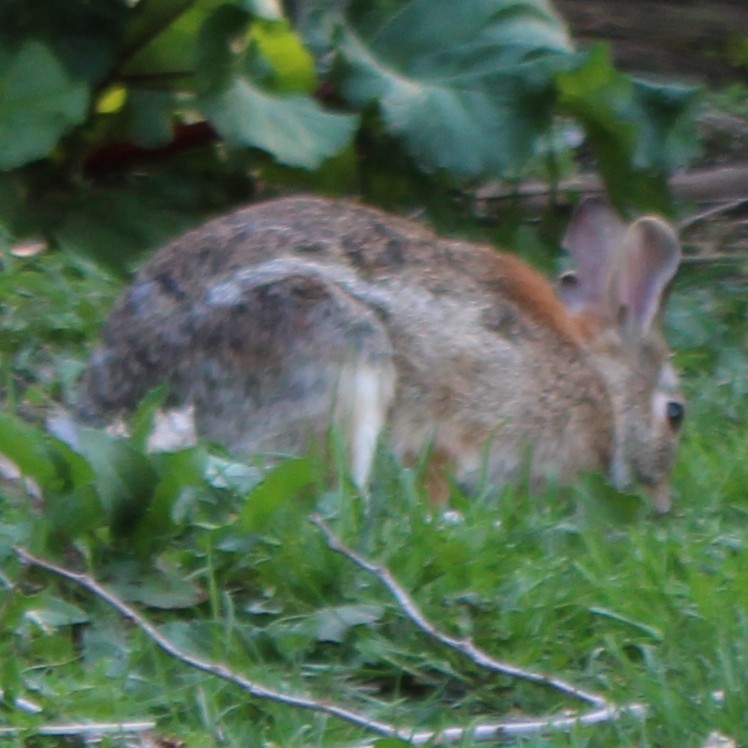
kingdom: Animalia
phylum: Chordata
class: Mammalia
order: Lagomorpha
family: Leporidae
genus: Sylvilagus
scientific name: Sylvilagus floridanus
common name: Eastern cottontail
